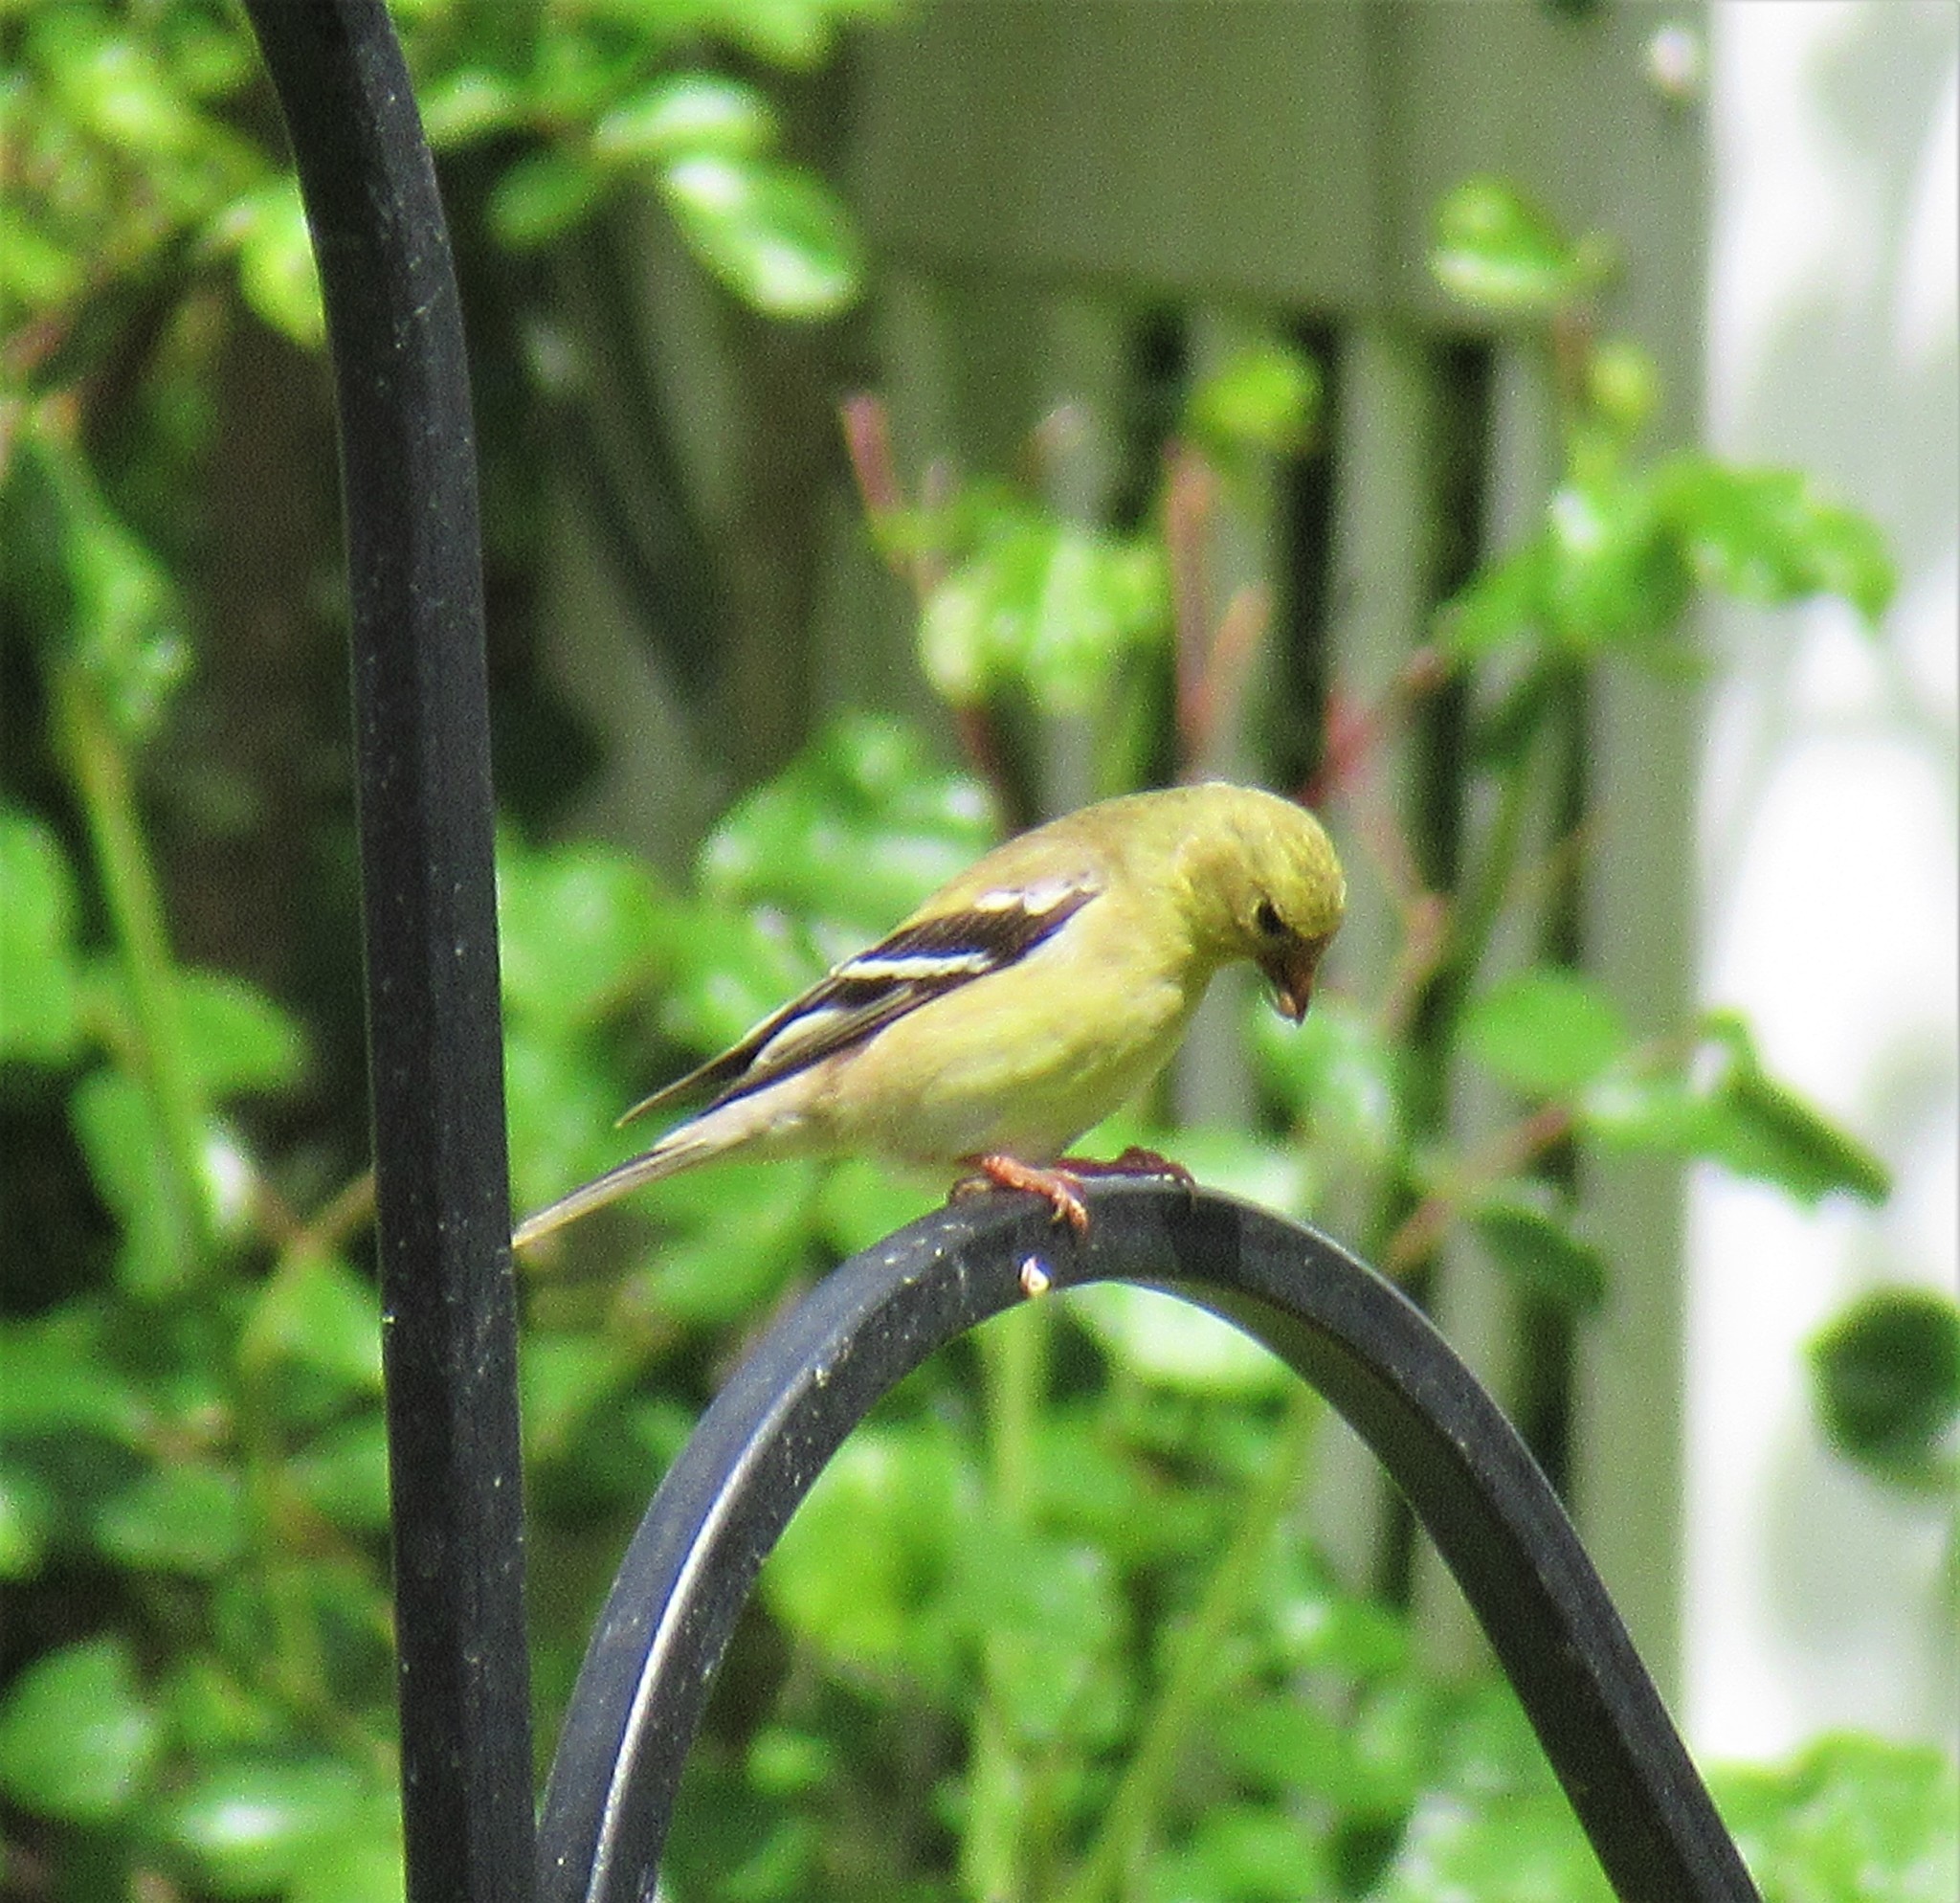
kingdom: Animalia
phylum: Chordata
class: Aves
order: Passeriformes
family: Fringillidae
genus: Spinus
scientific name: Spinus tristis
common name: American goldfinch
